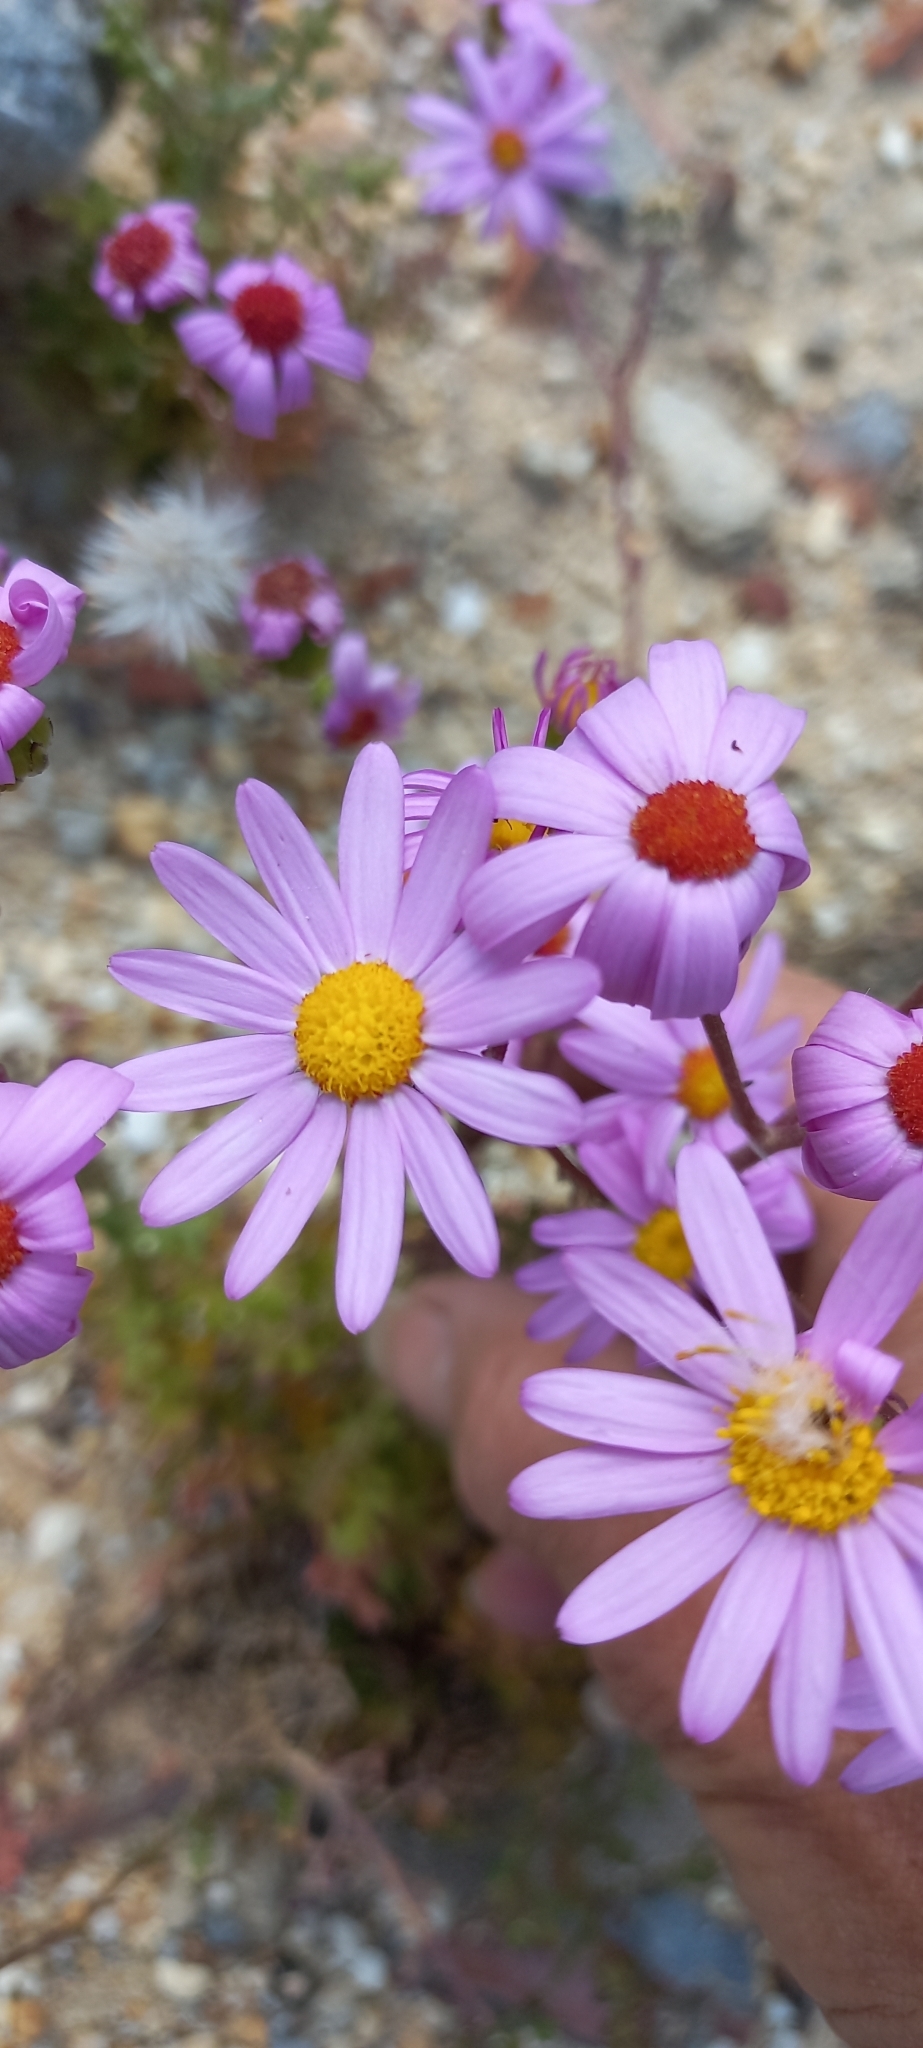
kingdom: Plantae
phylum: Tracheophyta
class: Magnoliopsida
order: Asterales
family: Asteraceae
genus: Senecio
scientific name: Senecio elegans
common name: Purple groundsel
